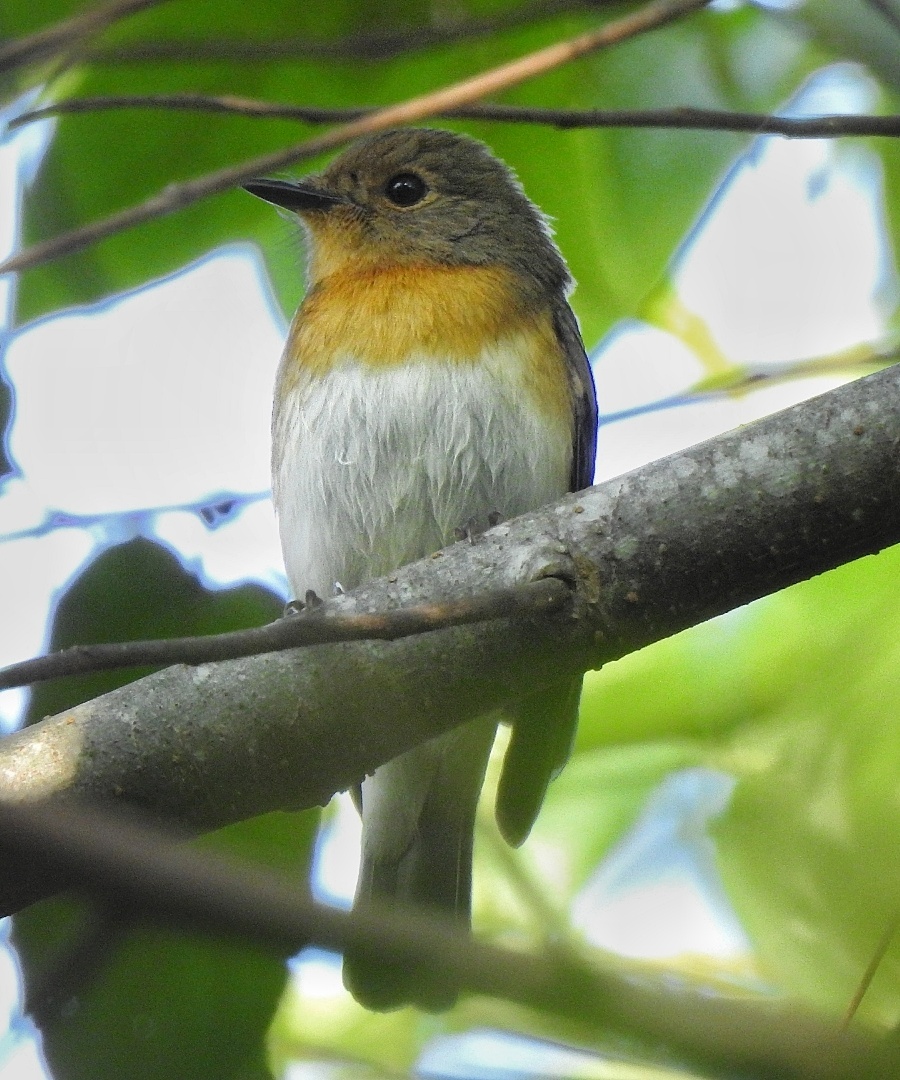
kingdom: Animalia
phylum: Chordata
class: Aves
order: Passeriformes
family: Muscicapidae
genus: Cyornis
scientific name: Cyornis rubeculoides
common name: Blue-throated blue flycatcher
